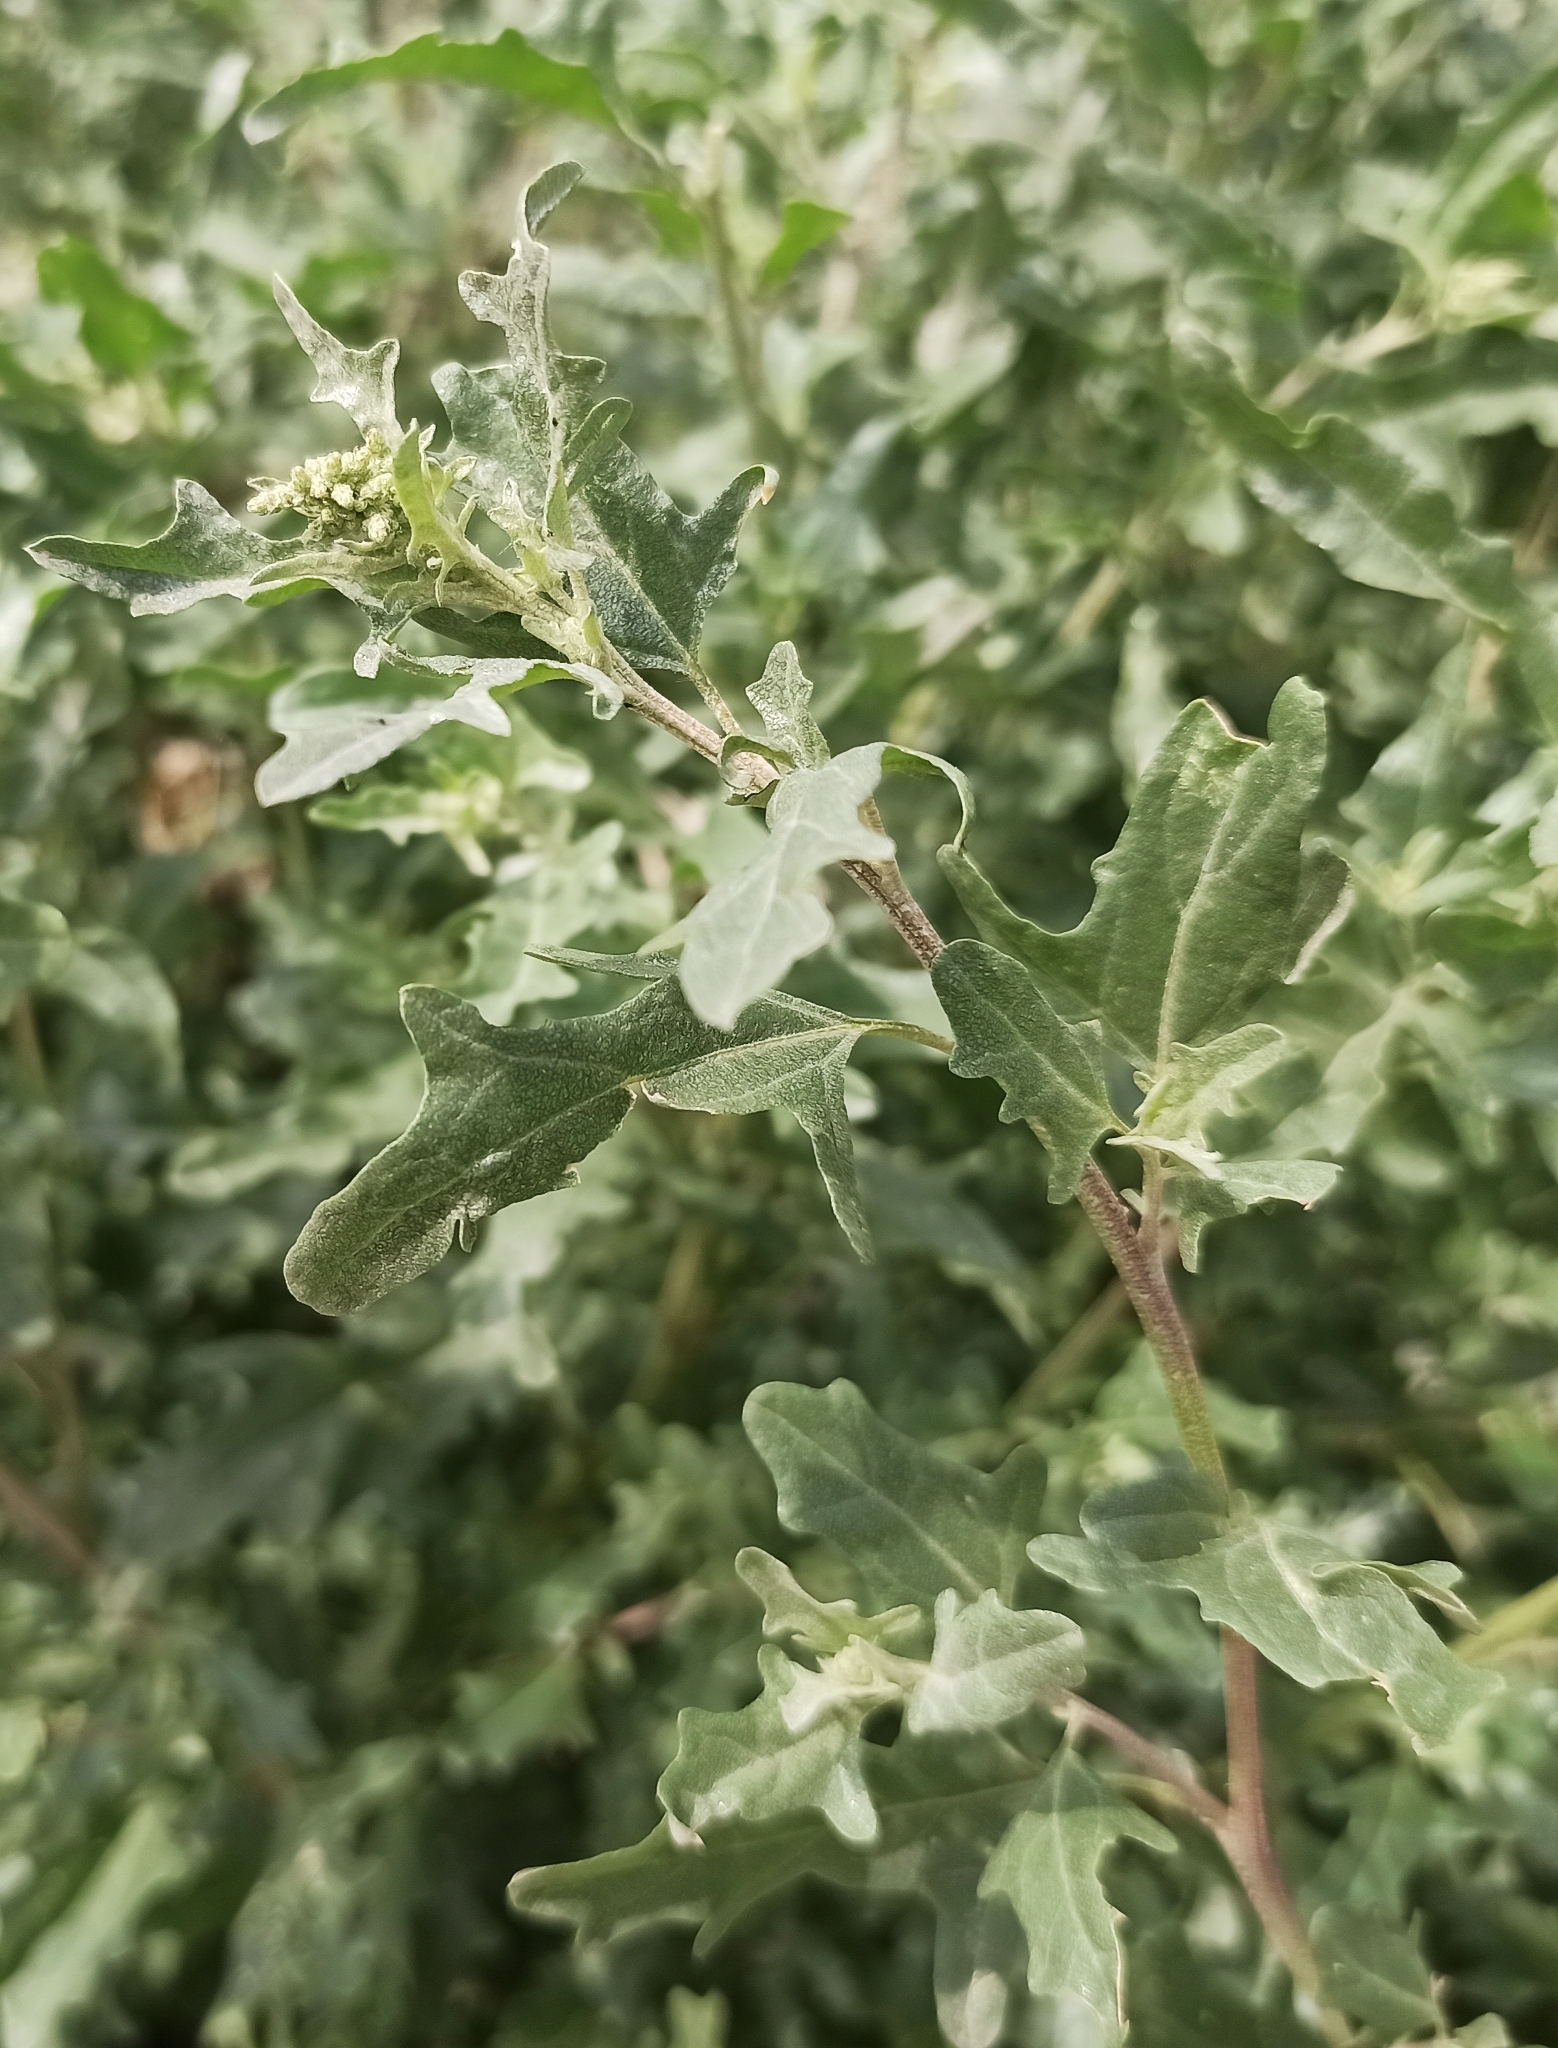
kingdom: Plantae
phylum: Tracheophyta
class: Magnoliopsida
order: Caryophyllales
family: Amaranthaceae
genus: Atriplex
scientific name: Atriplex tatarica
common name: Tatarian orache
